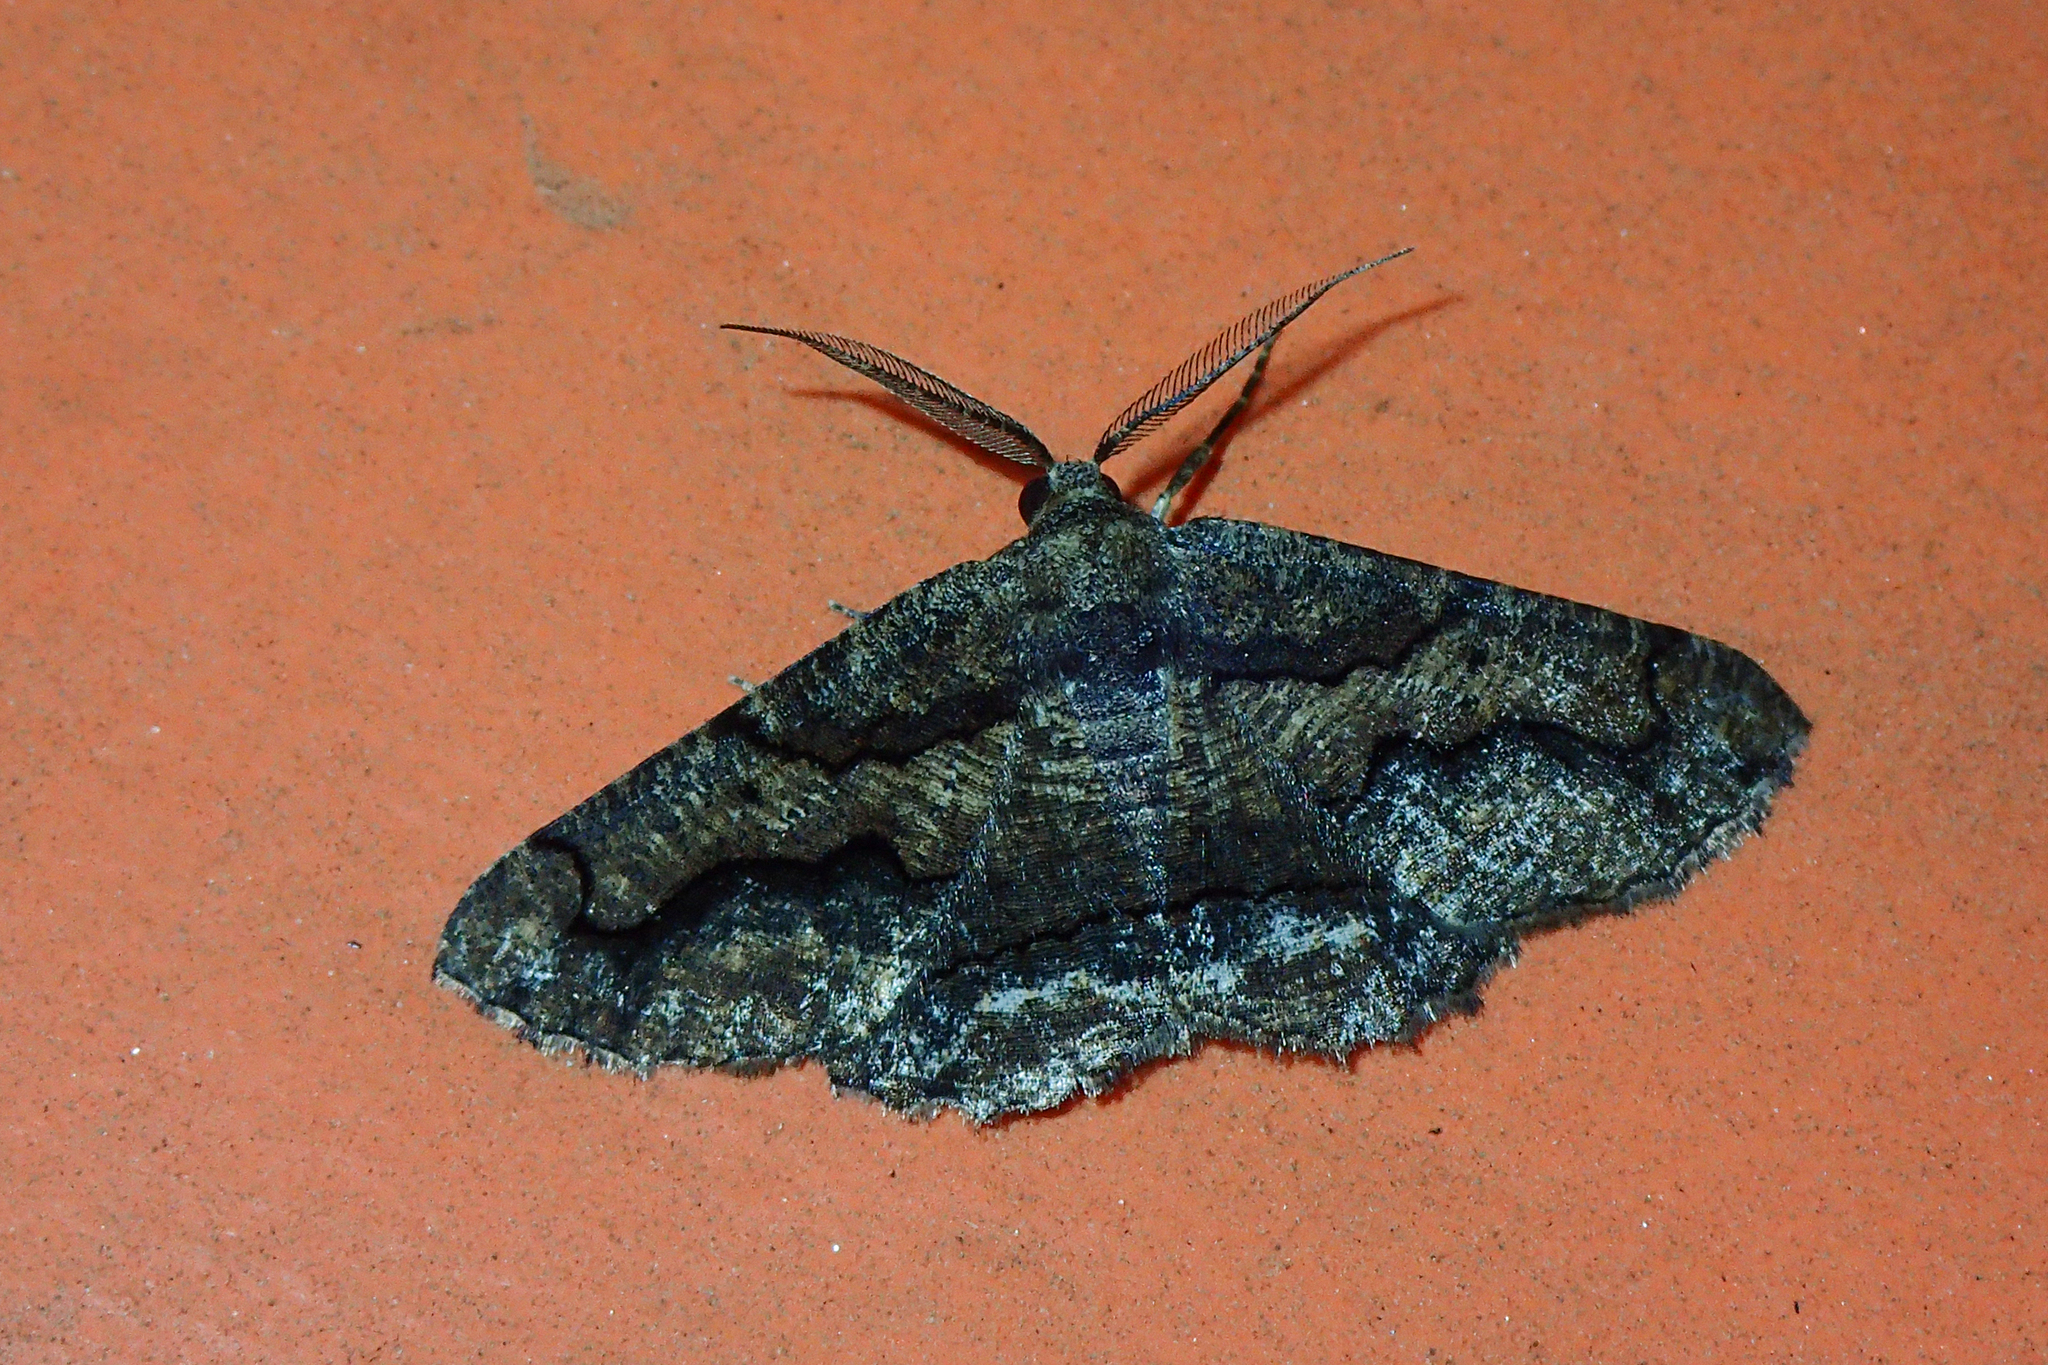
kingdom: Animalia
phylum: Arthropoda
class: Insecta
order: Lepidoptera
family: Geometridae
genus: Menophra
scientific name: Menophra japygiaria
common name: Brassy waved umber
